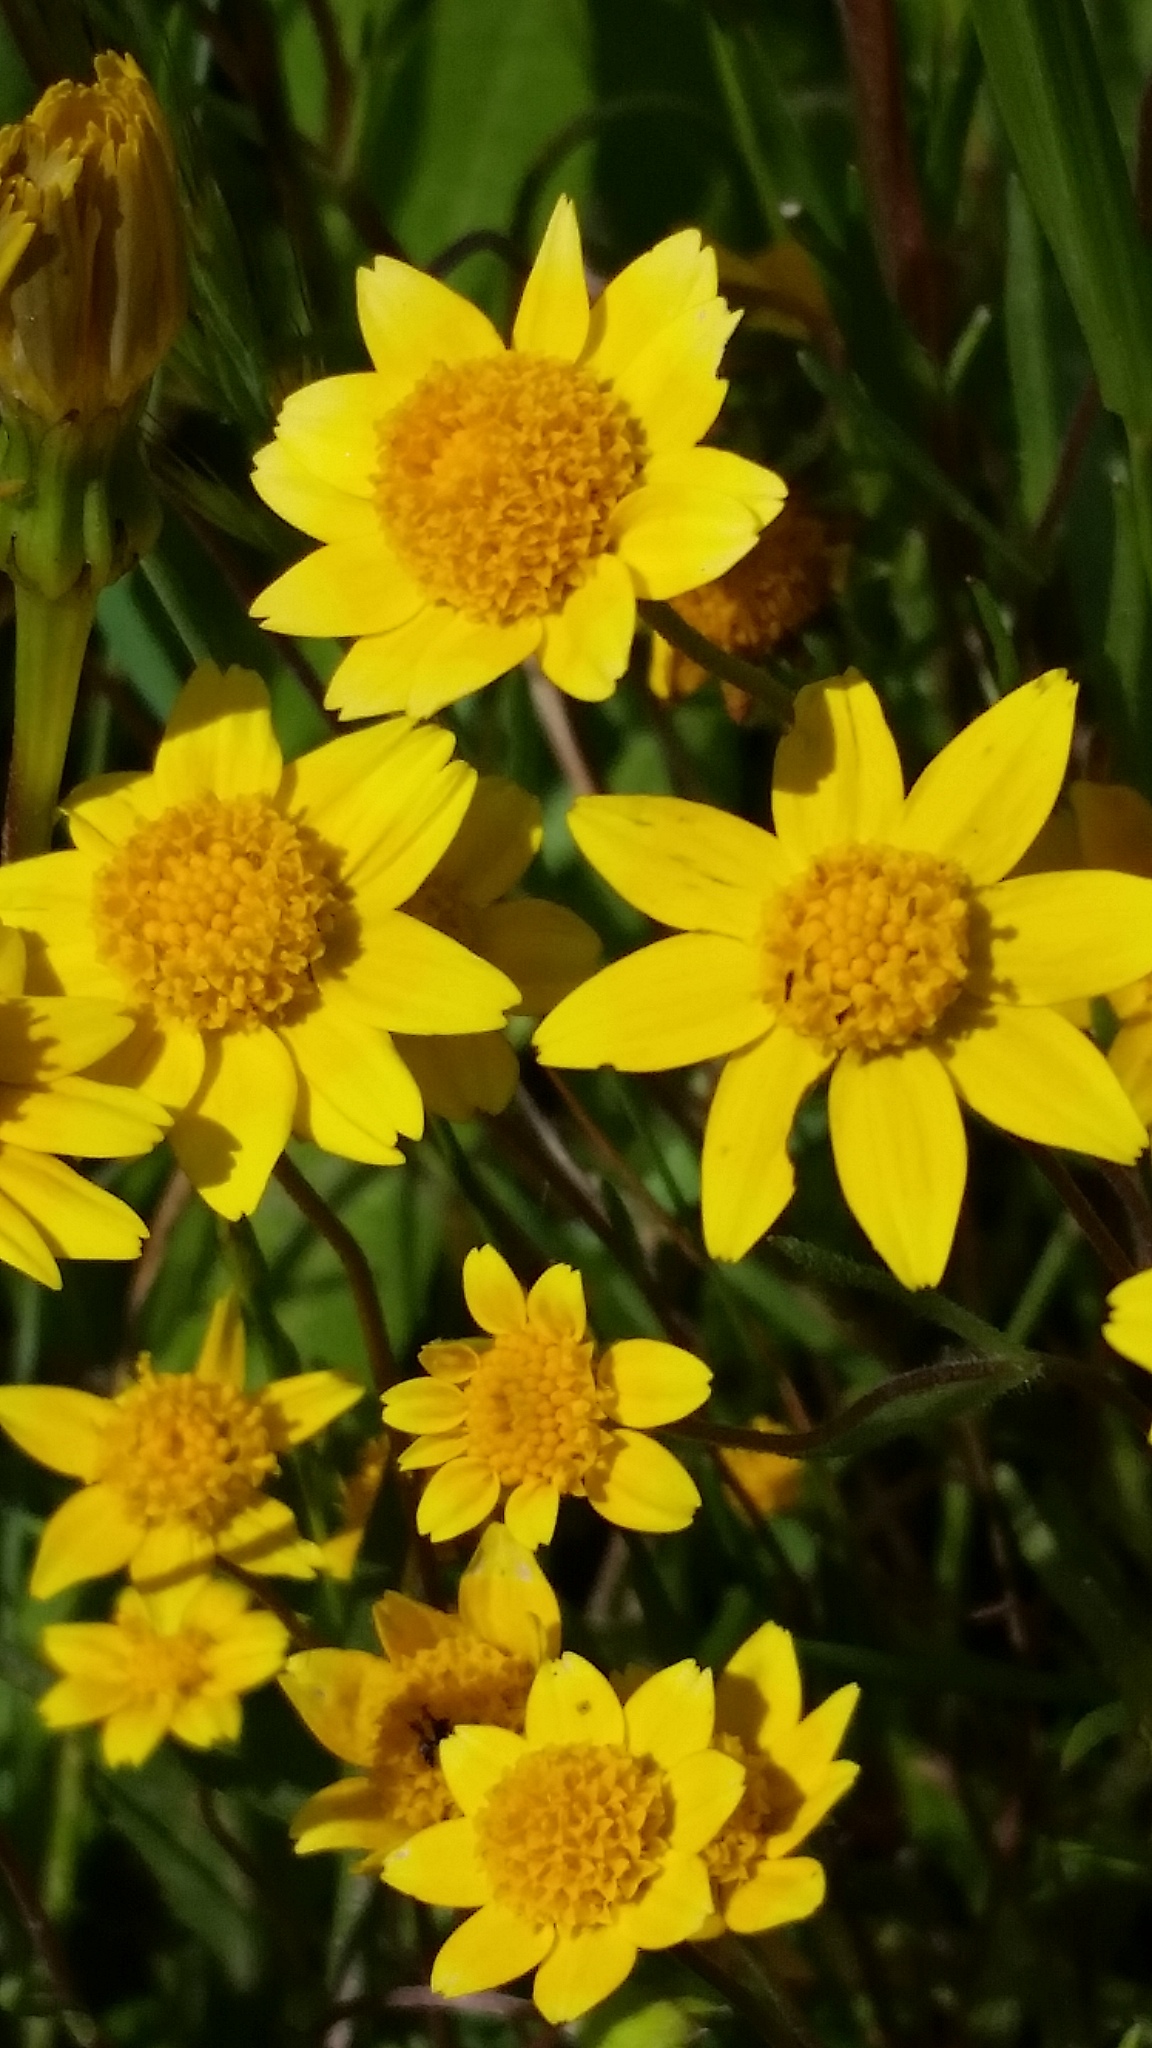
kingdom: Plantae
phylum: Tracheophyta
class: Magnoliopsida
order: Asterales
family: Asteraceae
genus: Lasthenia
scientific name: Lasthenia californica
